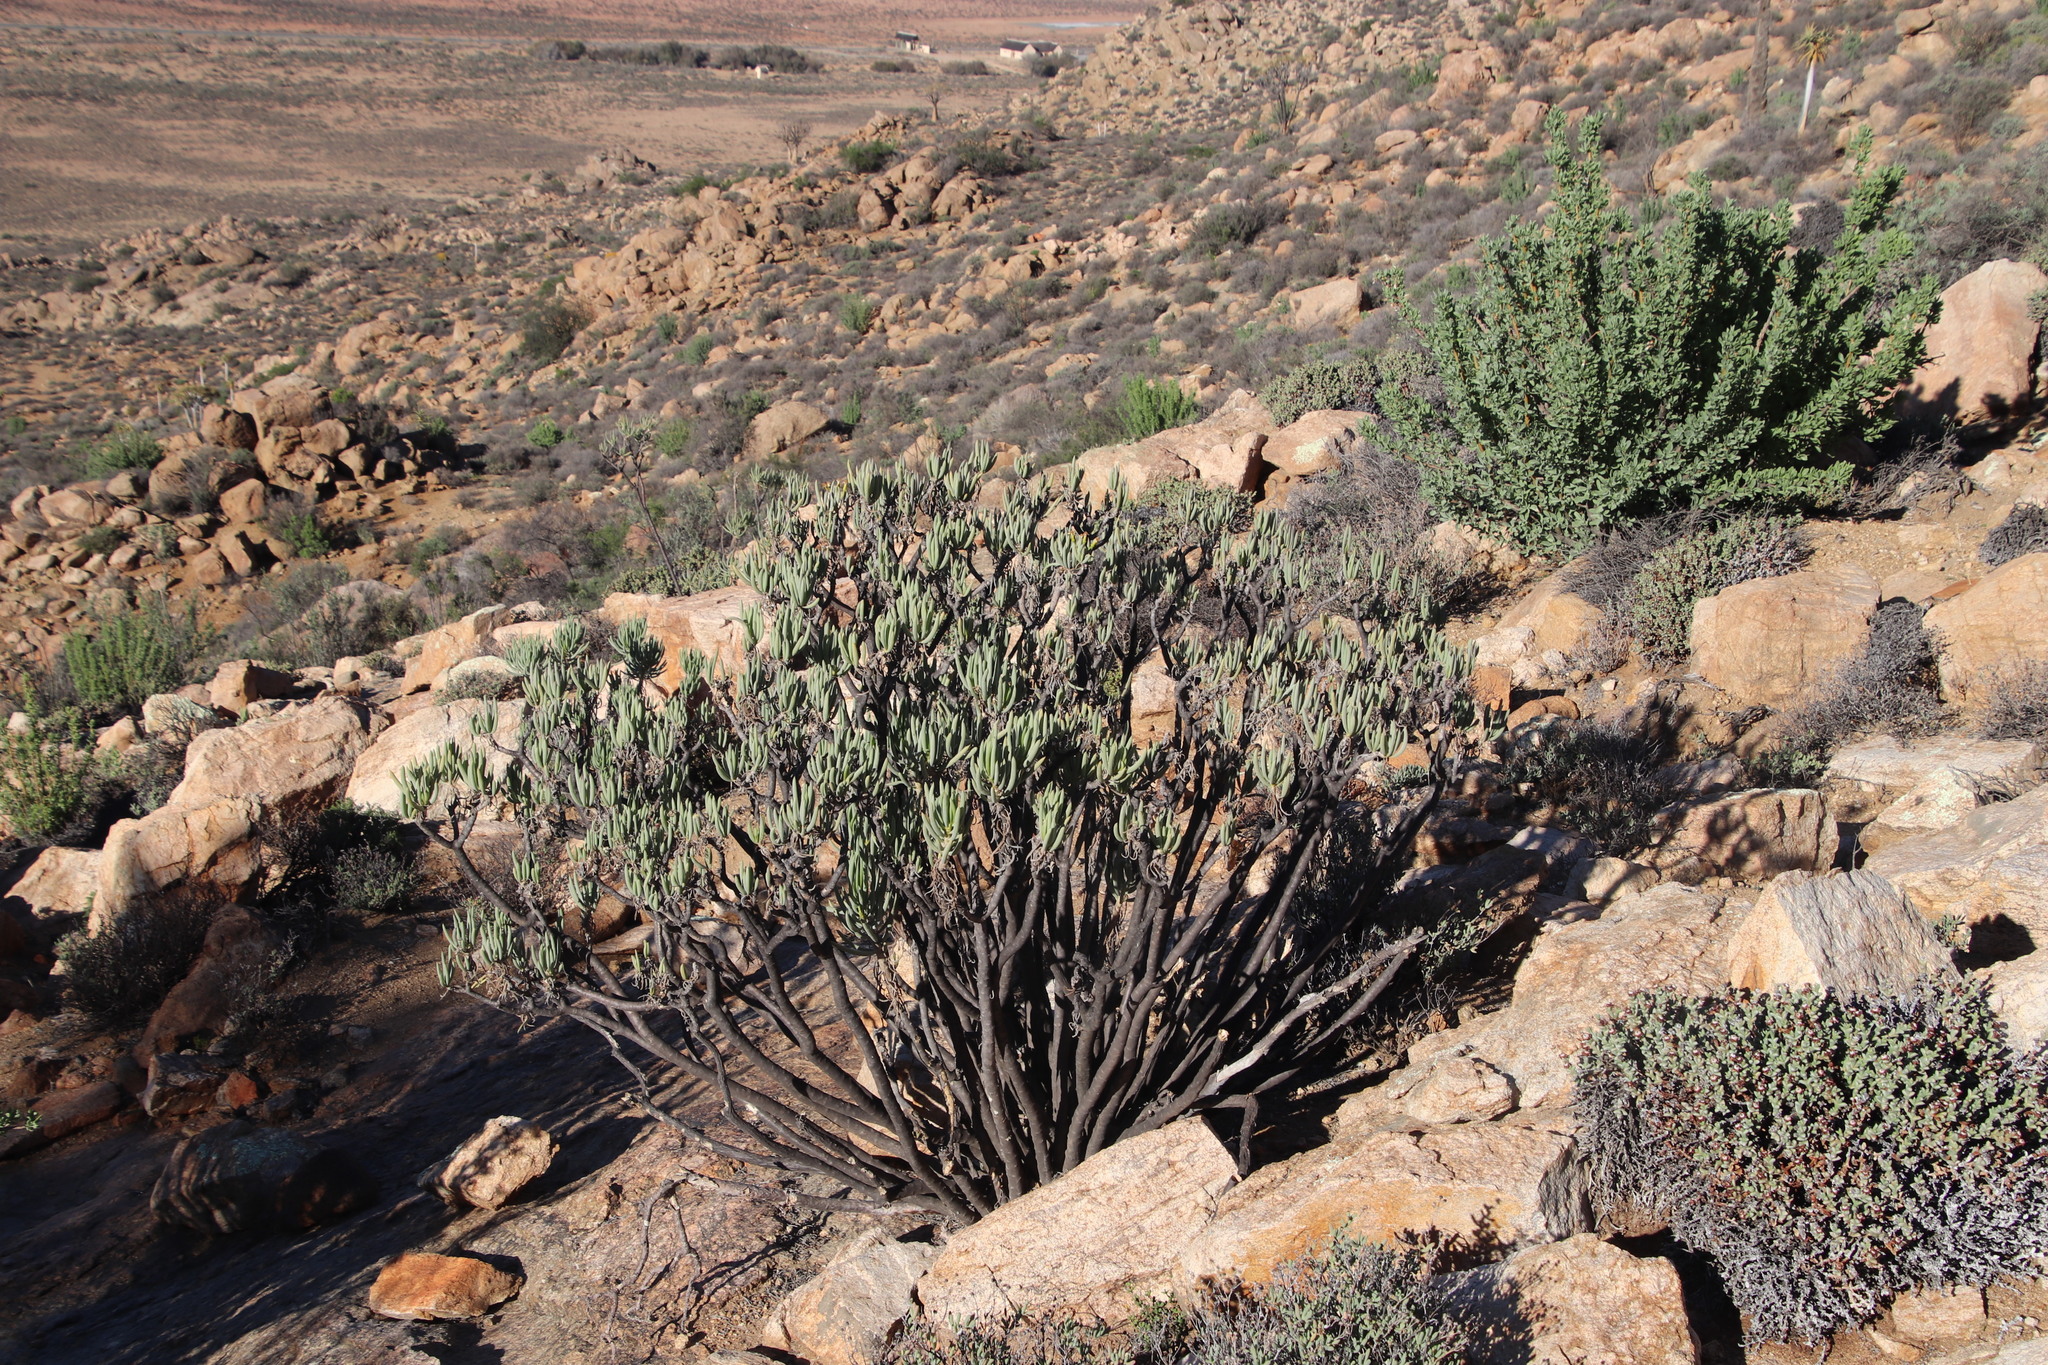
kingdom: Plantae
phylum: Tracheophyta
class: Magnoliopsida
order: Asterales
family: Asteraceae
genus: Curio
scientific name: Curio corymbifer
